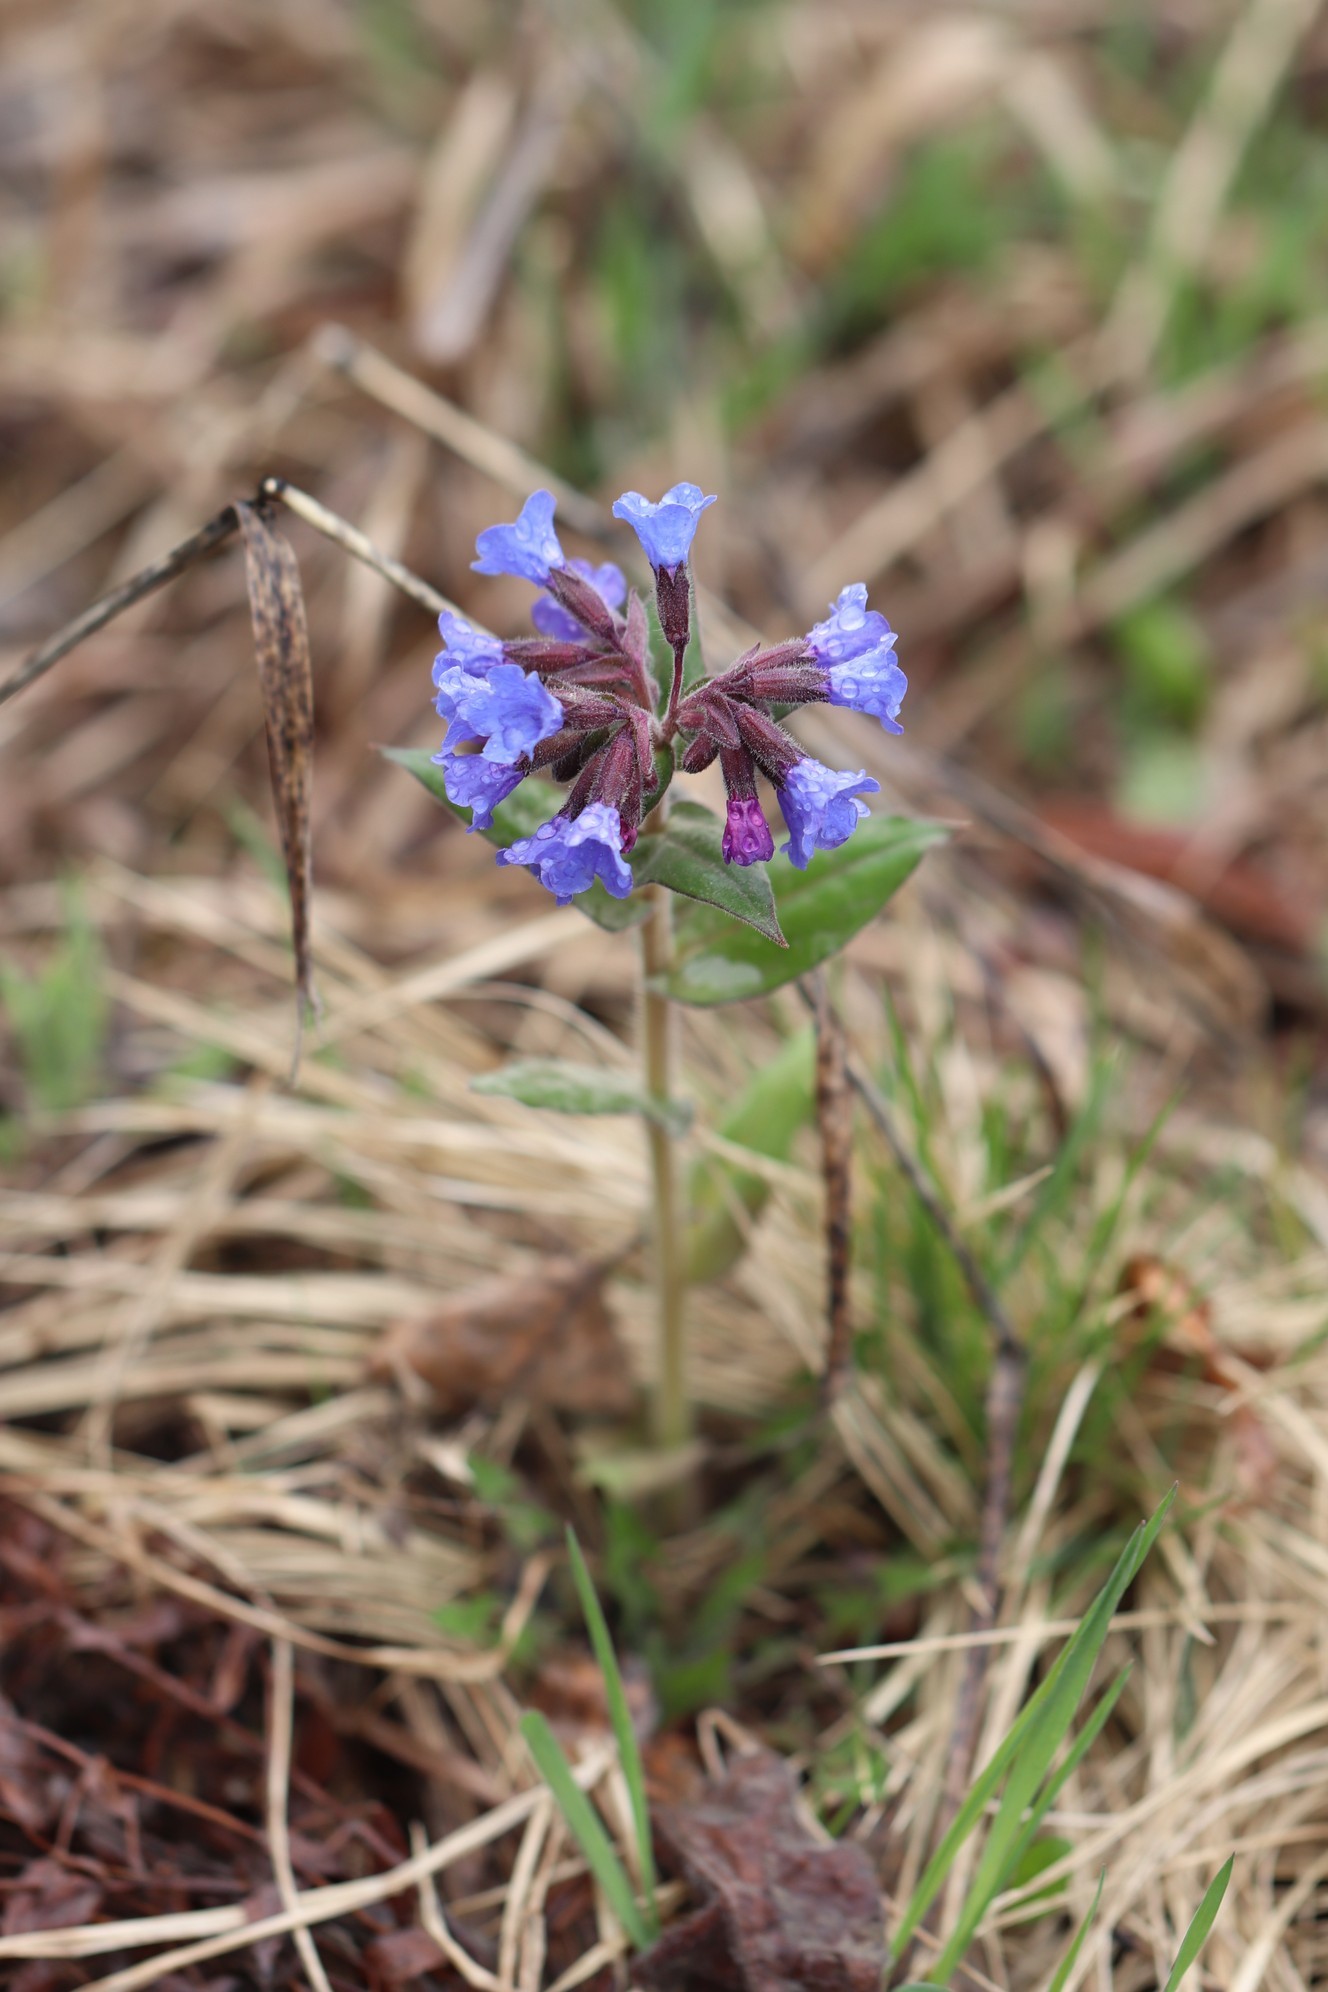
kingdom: Plantae
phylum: Tracheophyta
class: Magnoliopsida
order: Boraginales
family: Boraginaceae
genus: Pulmonaria
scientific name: Pulmonaria mollis
